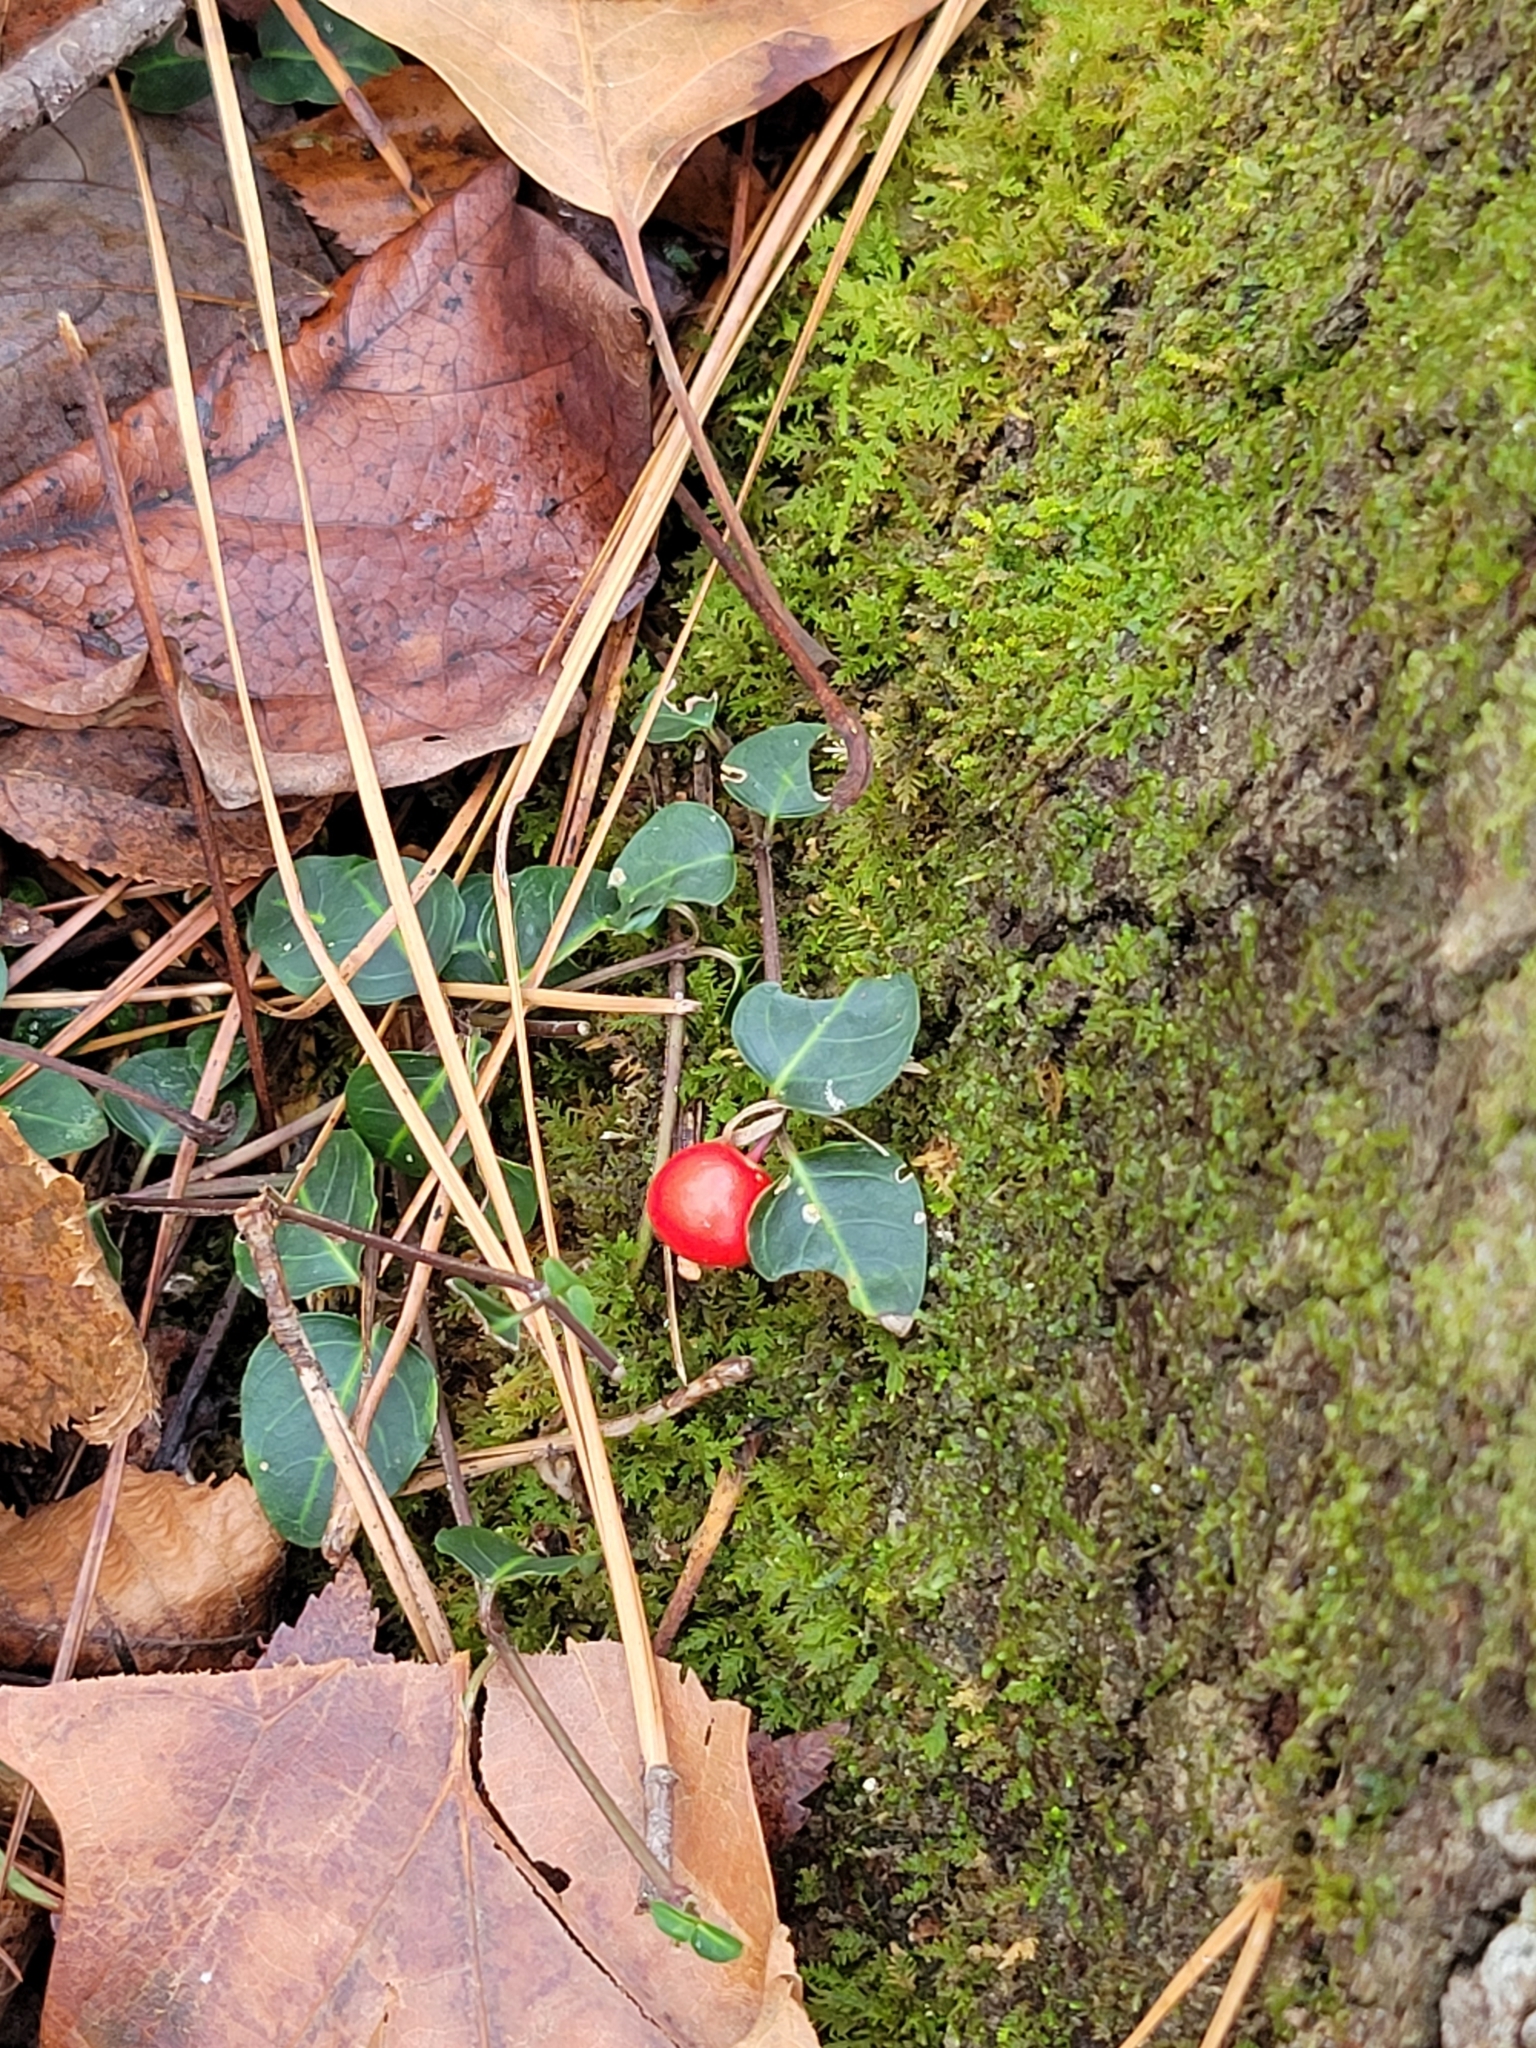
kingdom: Plantae
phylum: Tracheophyta
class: Magnoliopsida
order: Gentianales
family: Rubiaceae
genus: Mitchella
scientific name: Mitchella repens
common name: Partridge-berry
